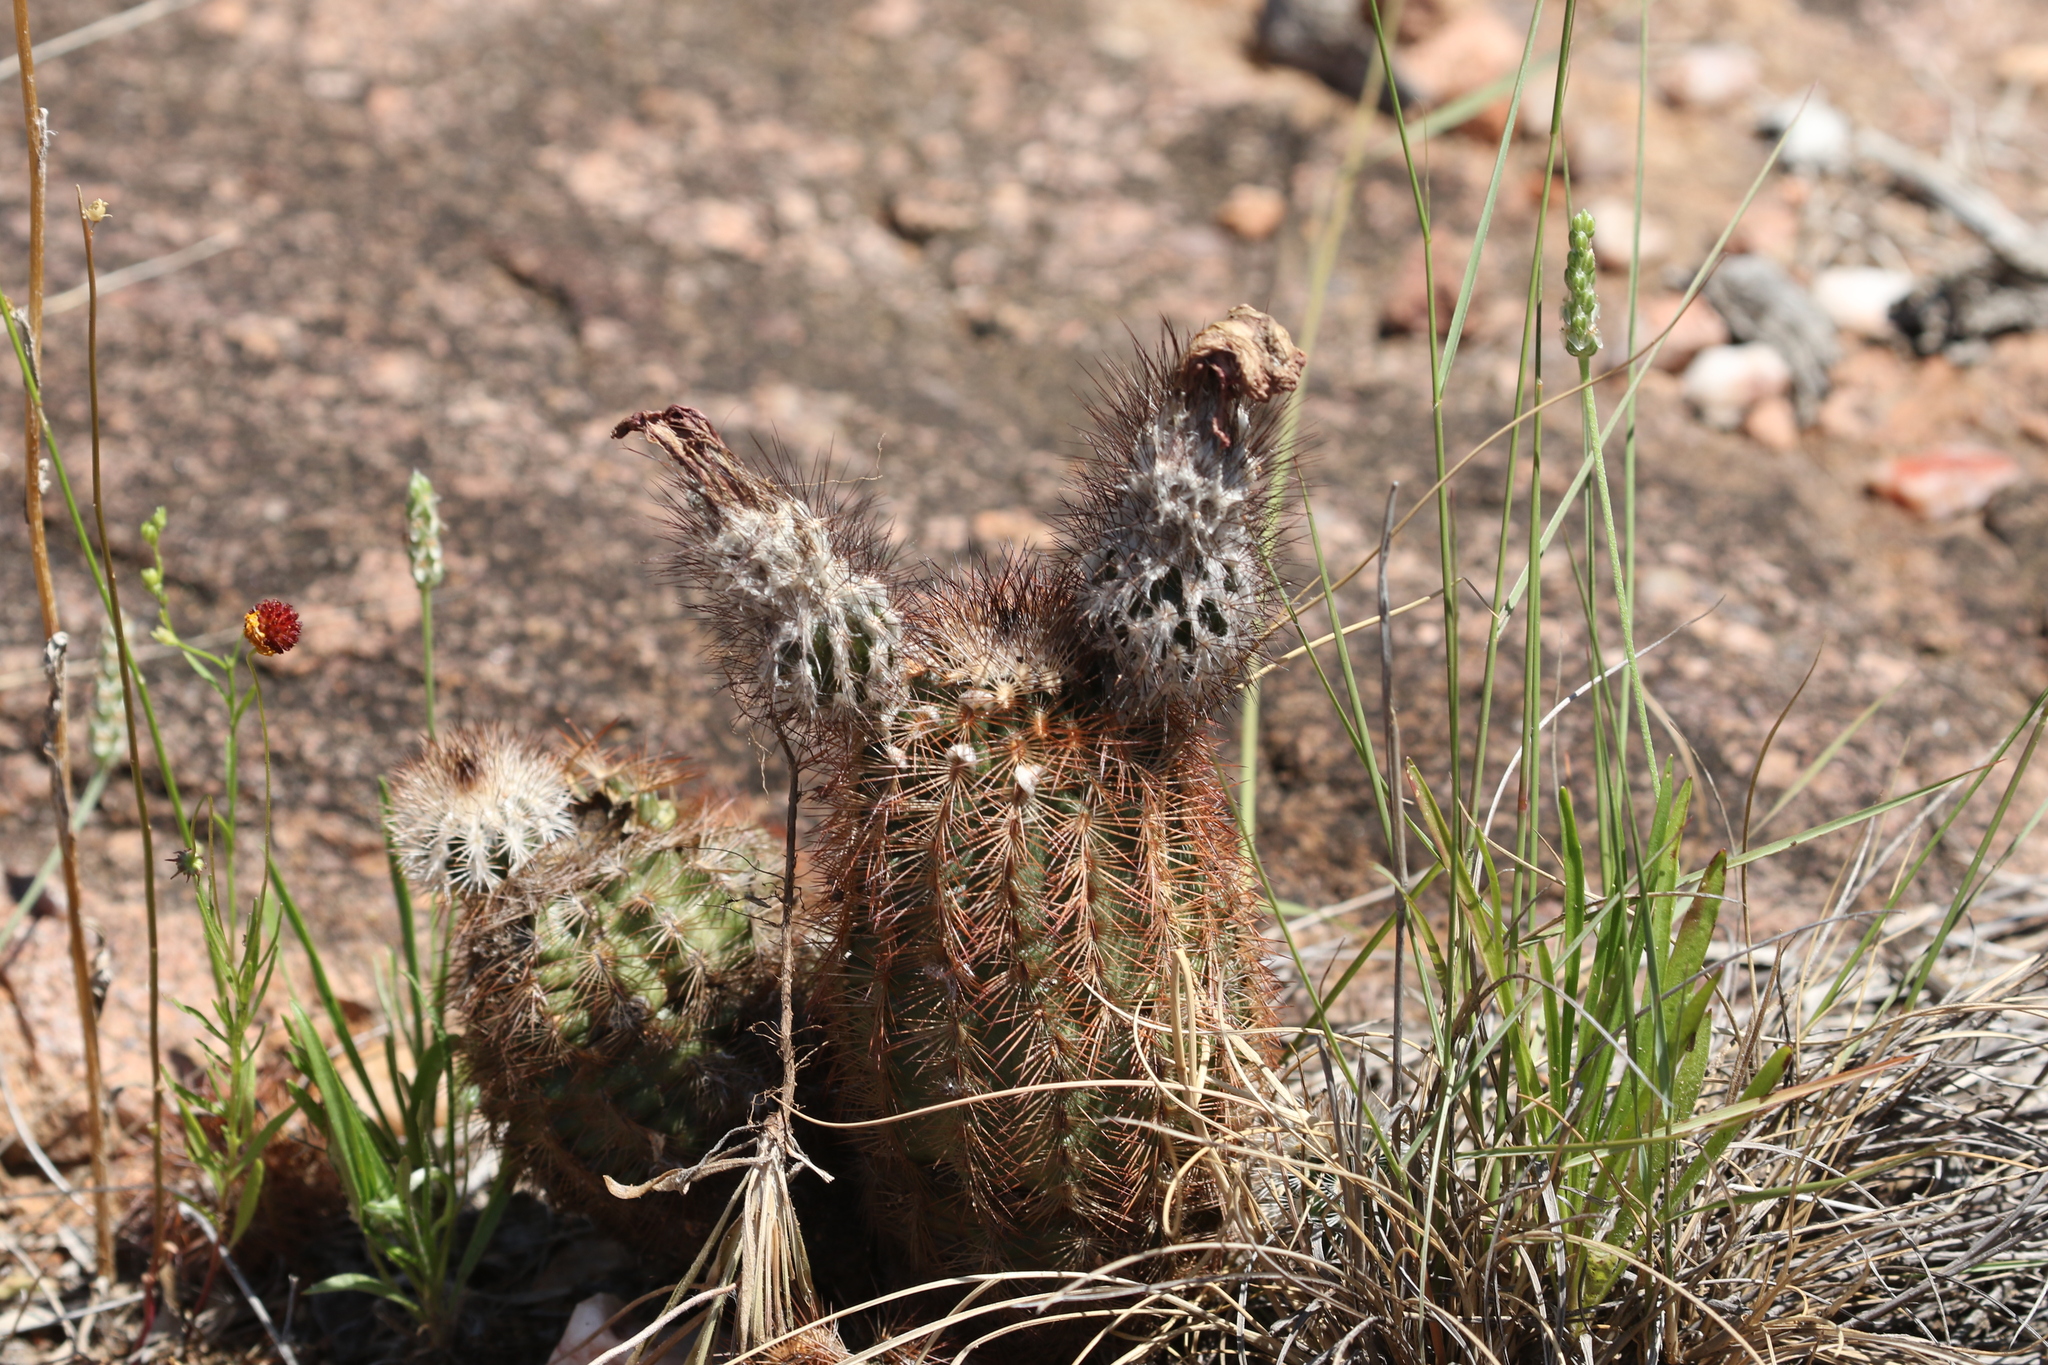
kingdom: Plantae
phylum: Tracheophyta
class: Magnoliopsida
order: Caryophyllales
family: Cactaceae
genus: Echinocereus
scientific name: Echinocereus reichenbachii
